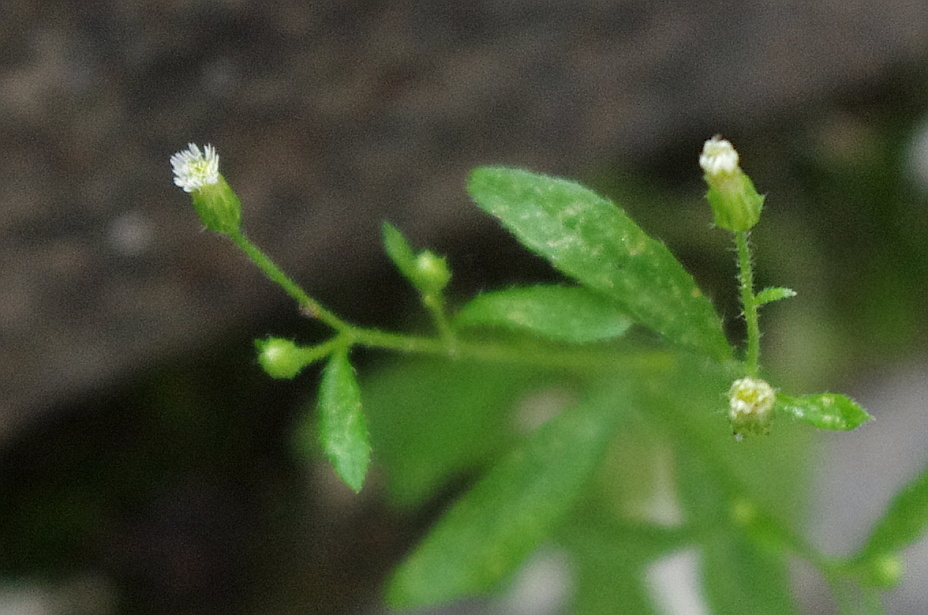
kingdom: Plantae
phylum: Tracheophyta
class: Magnoliopsida
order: Asterales
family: Asteraceae
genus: Erigeron
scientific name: Erigeron canadensis
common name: Canadian fleabane
